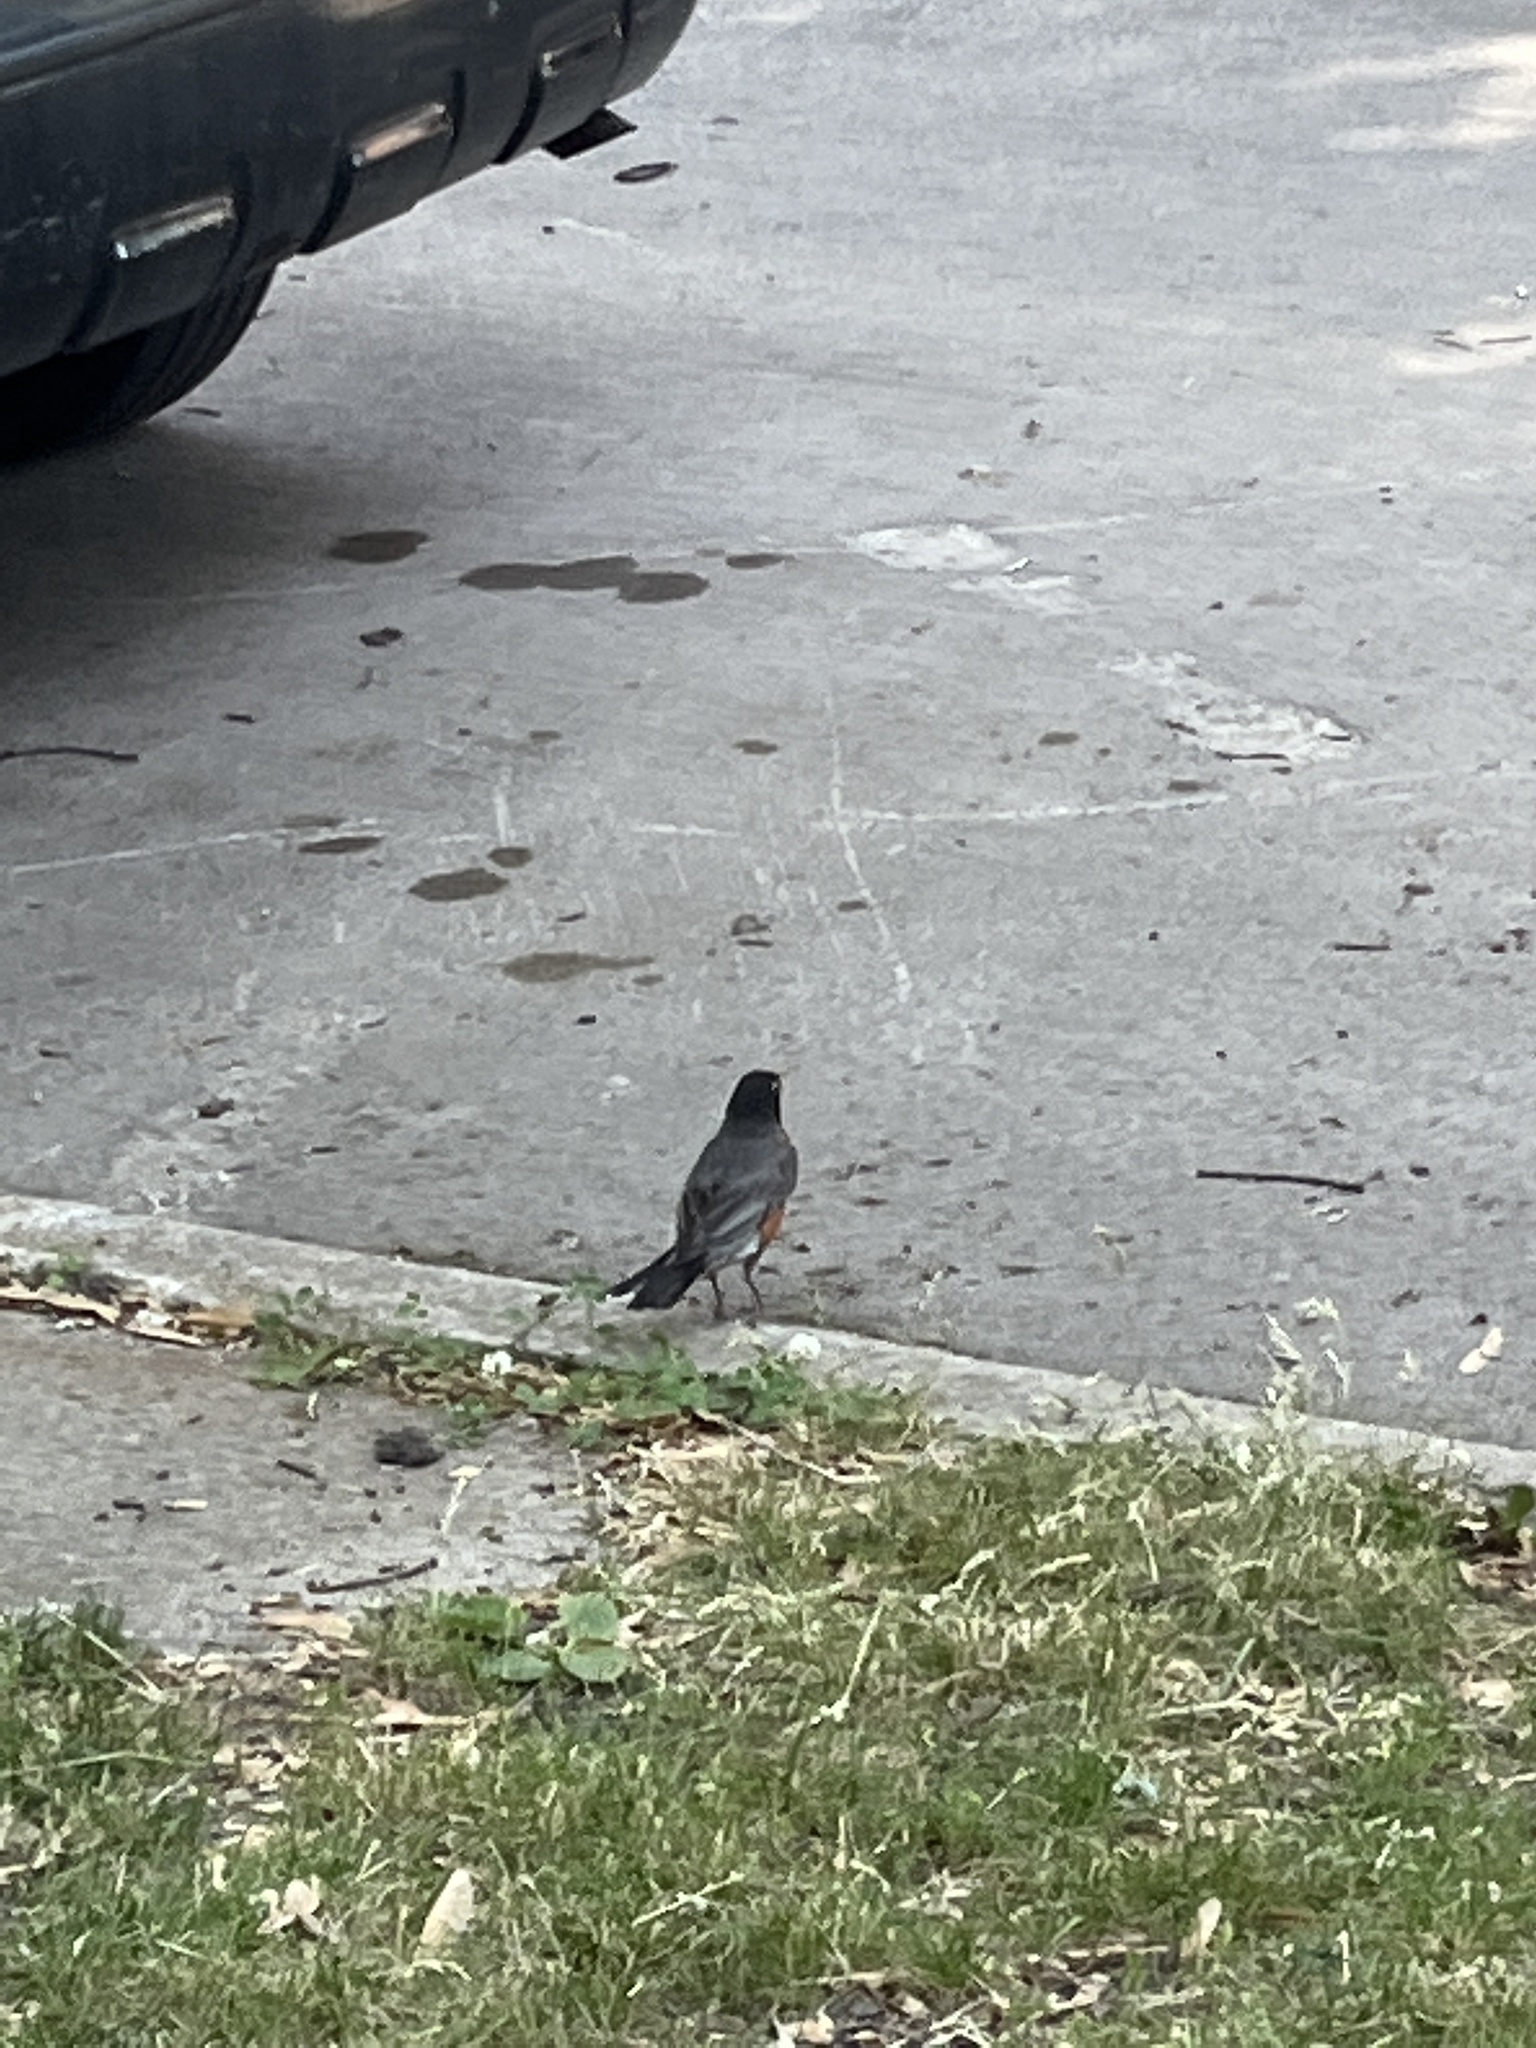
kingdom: Animalia
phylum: Chordata
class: Aves
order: Passeriformes
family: Turdidae
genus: Turdus
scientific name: Turdus migratorius
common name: American robin
